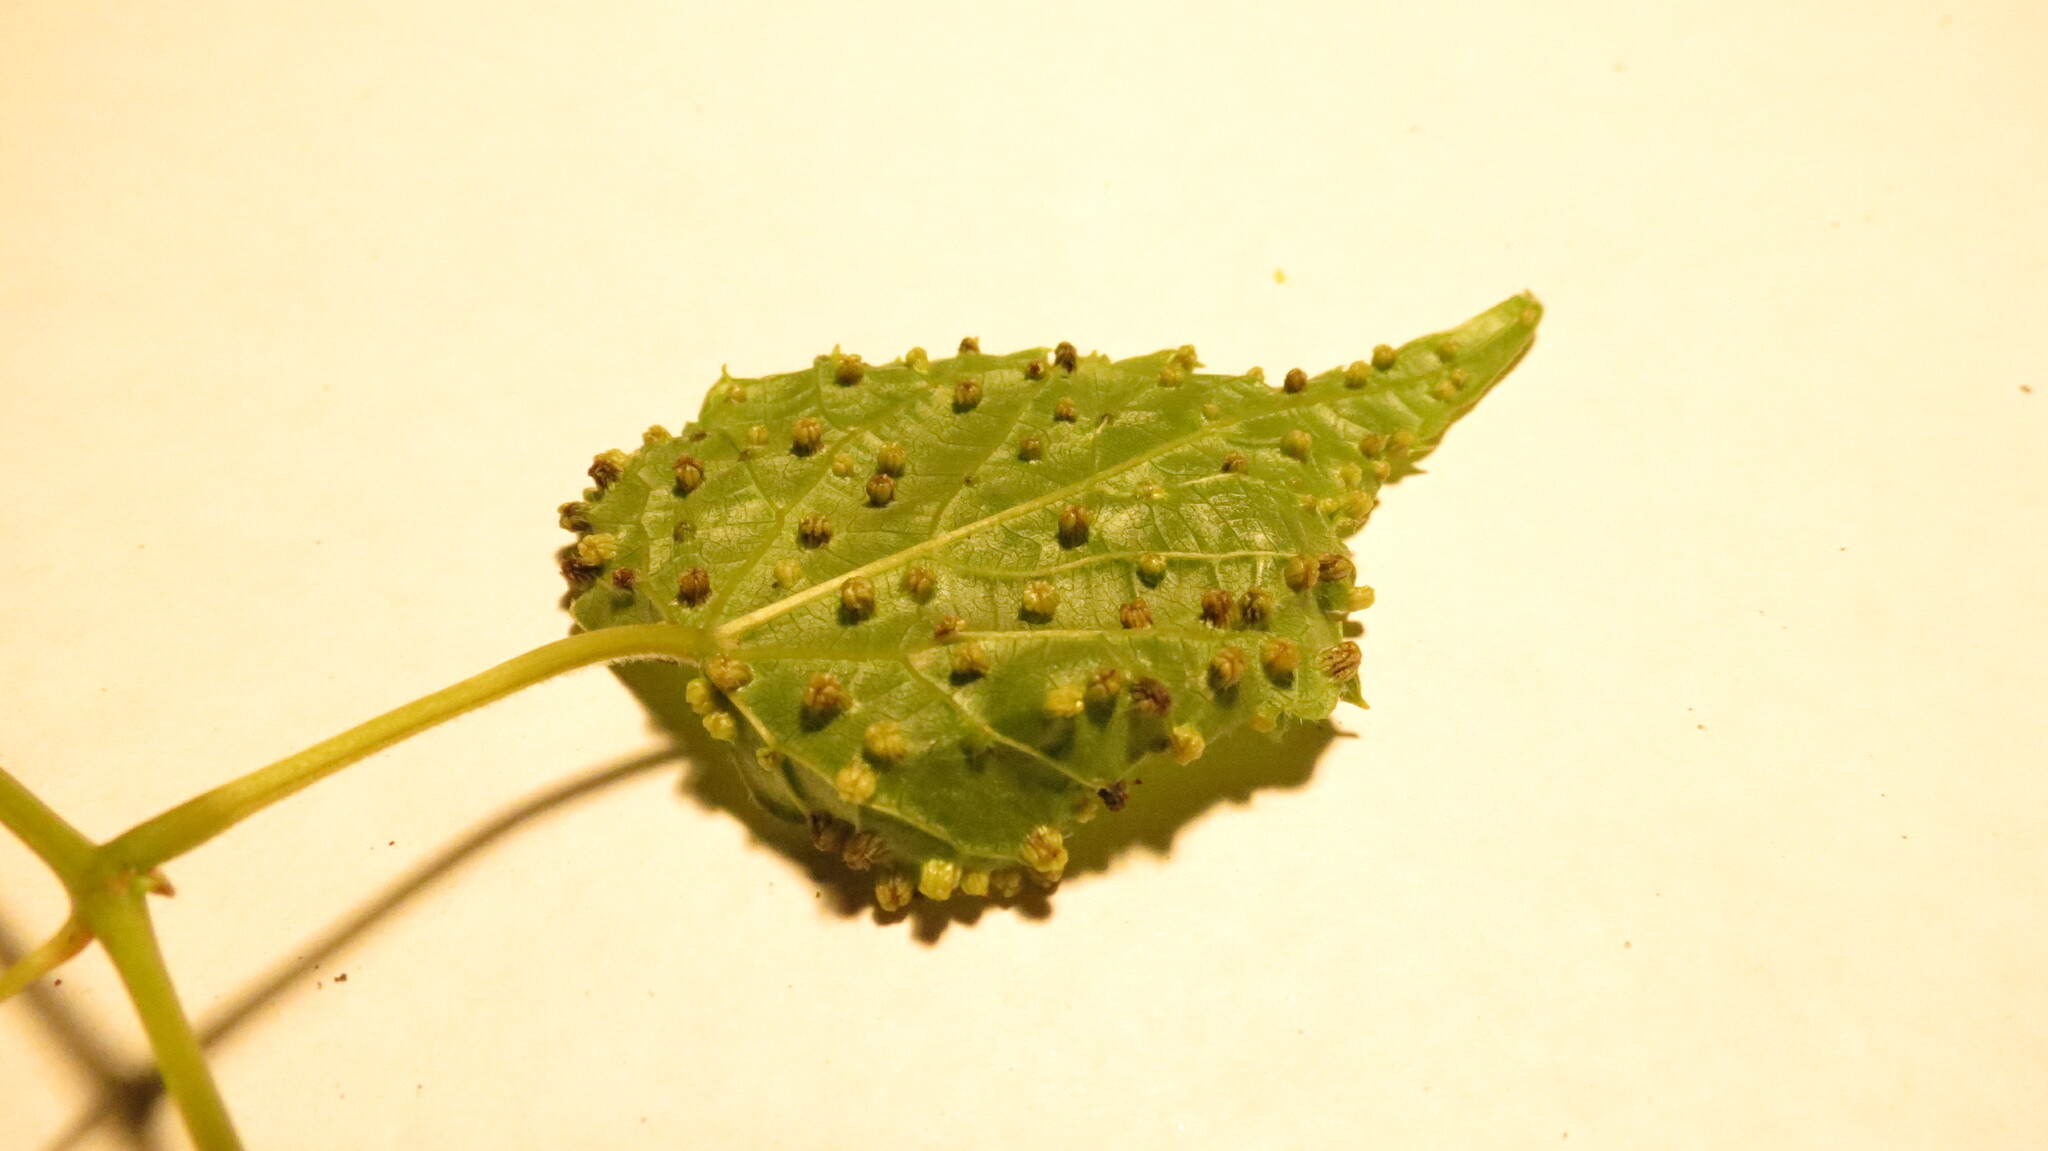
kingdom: Animalia
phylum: Arthropoda
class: Insecta
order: Hemiptera
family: Phylloxeridae
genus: Daktulosphaira
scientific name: Daktulosphaira vitifoliae
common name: Grape phylloxera
